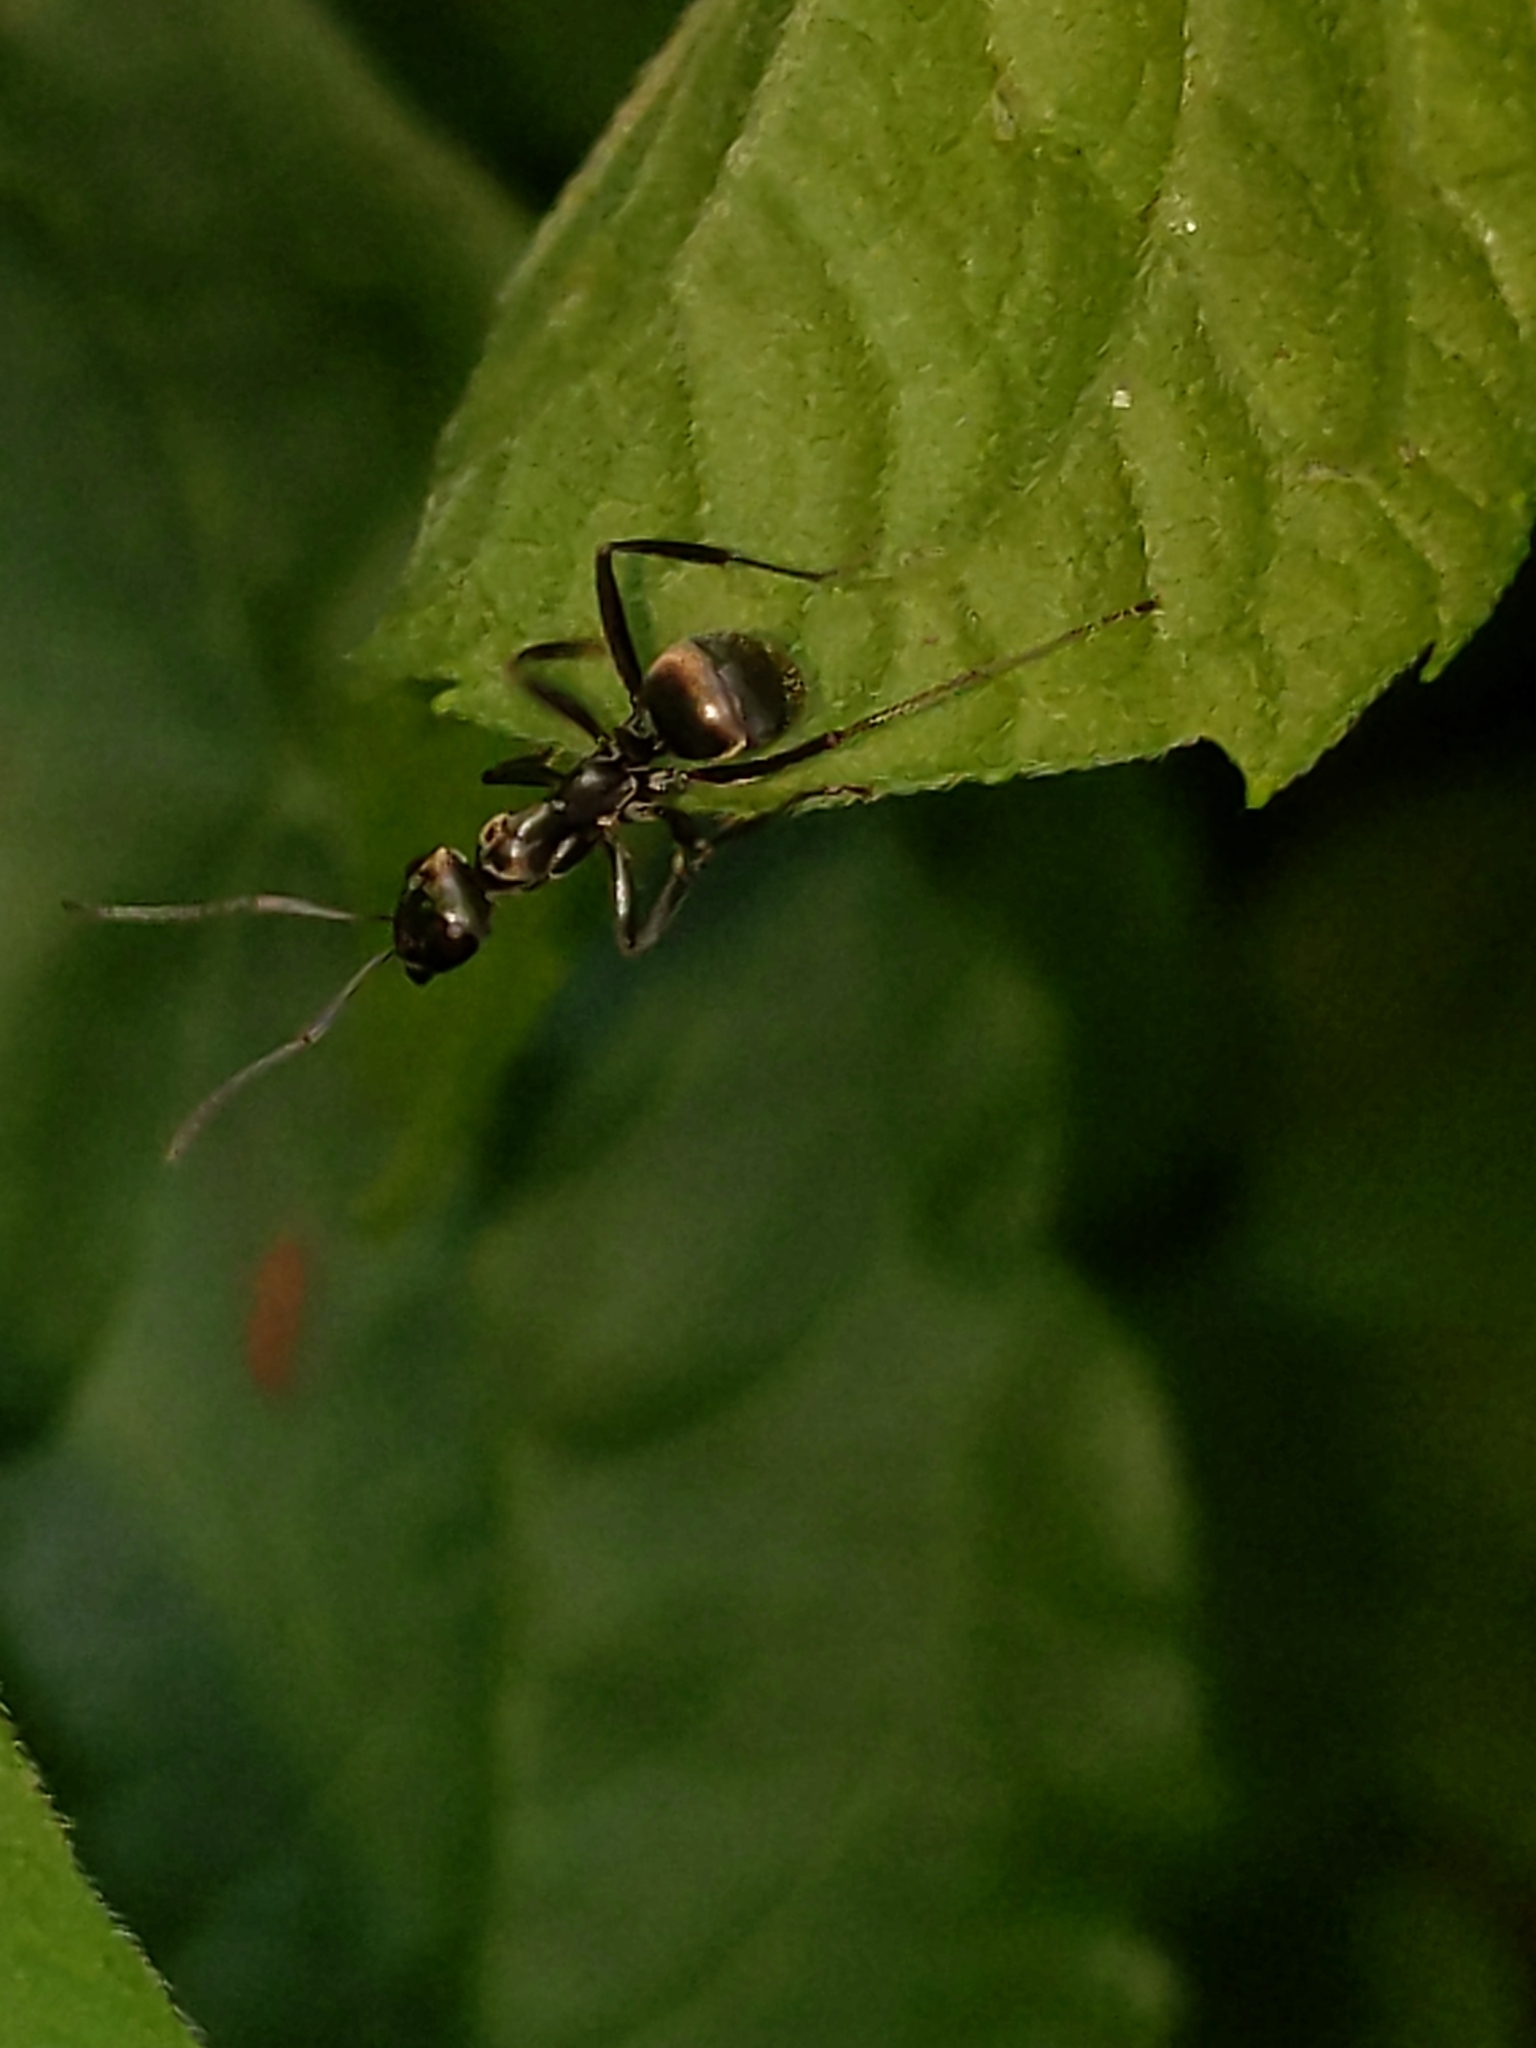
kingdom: Animalia
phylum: Arthropoda
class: Insecta
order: Hymenoptera
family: Formicidae
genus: Formica
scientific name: Formica
